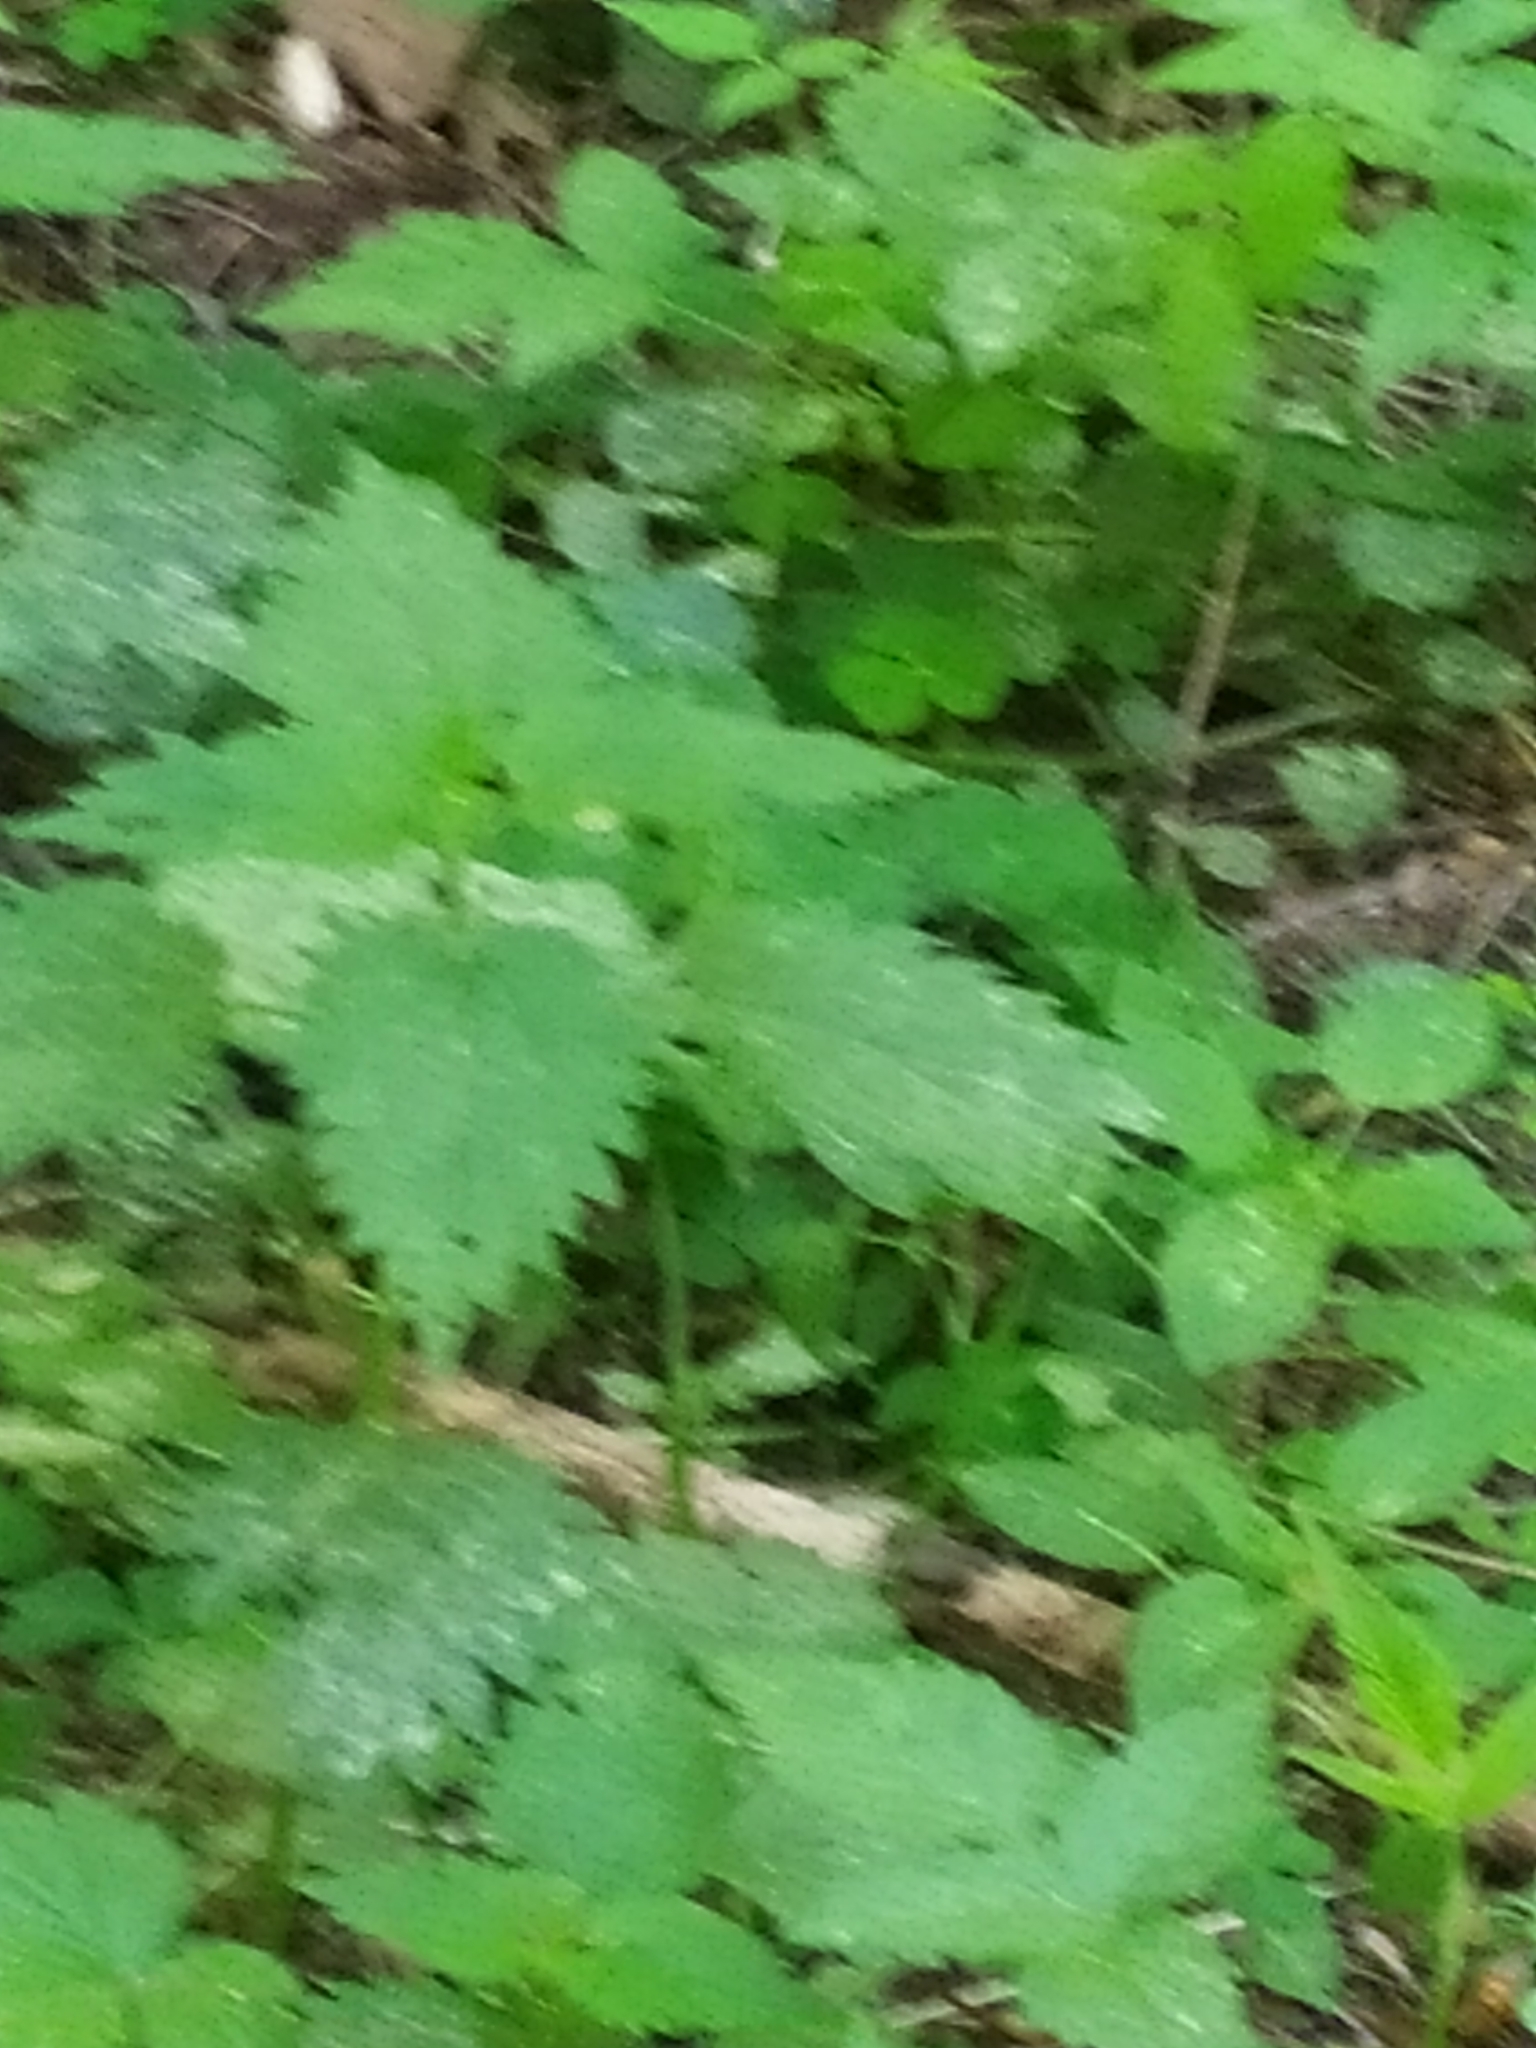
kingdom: Plantae
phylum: Tracheophyta
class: Magnoliopsida
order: Rosales
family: Urticaceae
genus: Urtica
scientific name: Urtica dioica
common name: Common nettle
